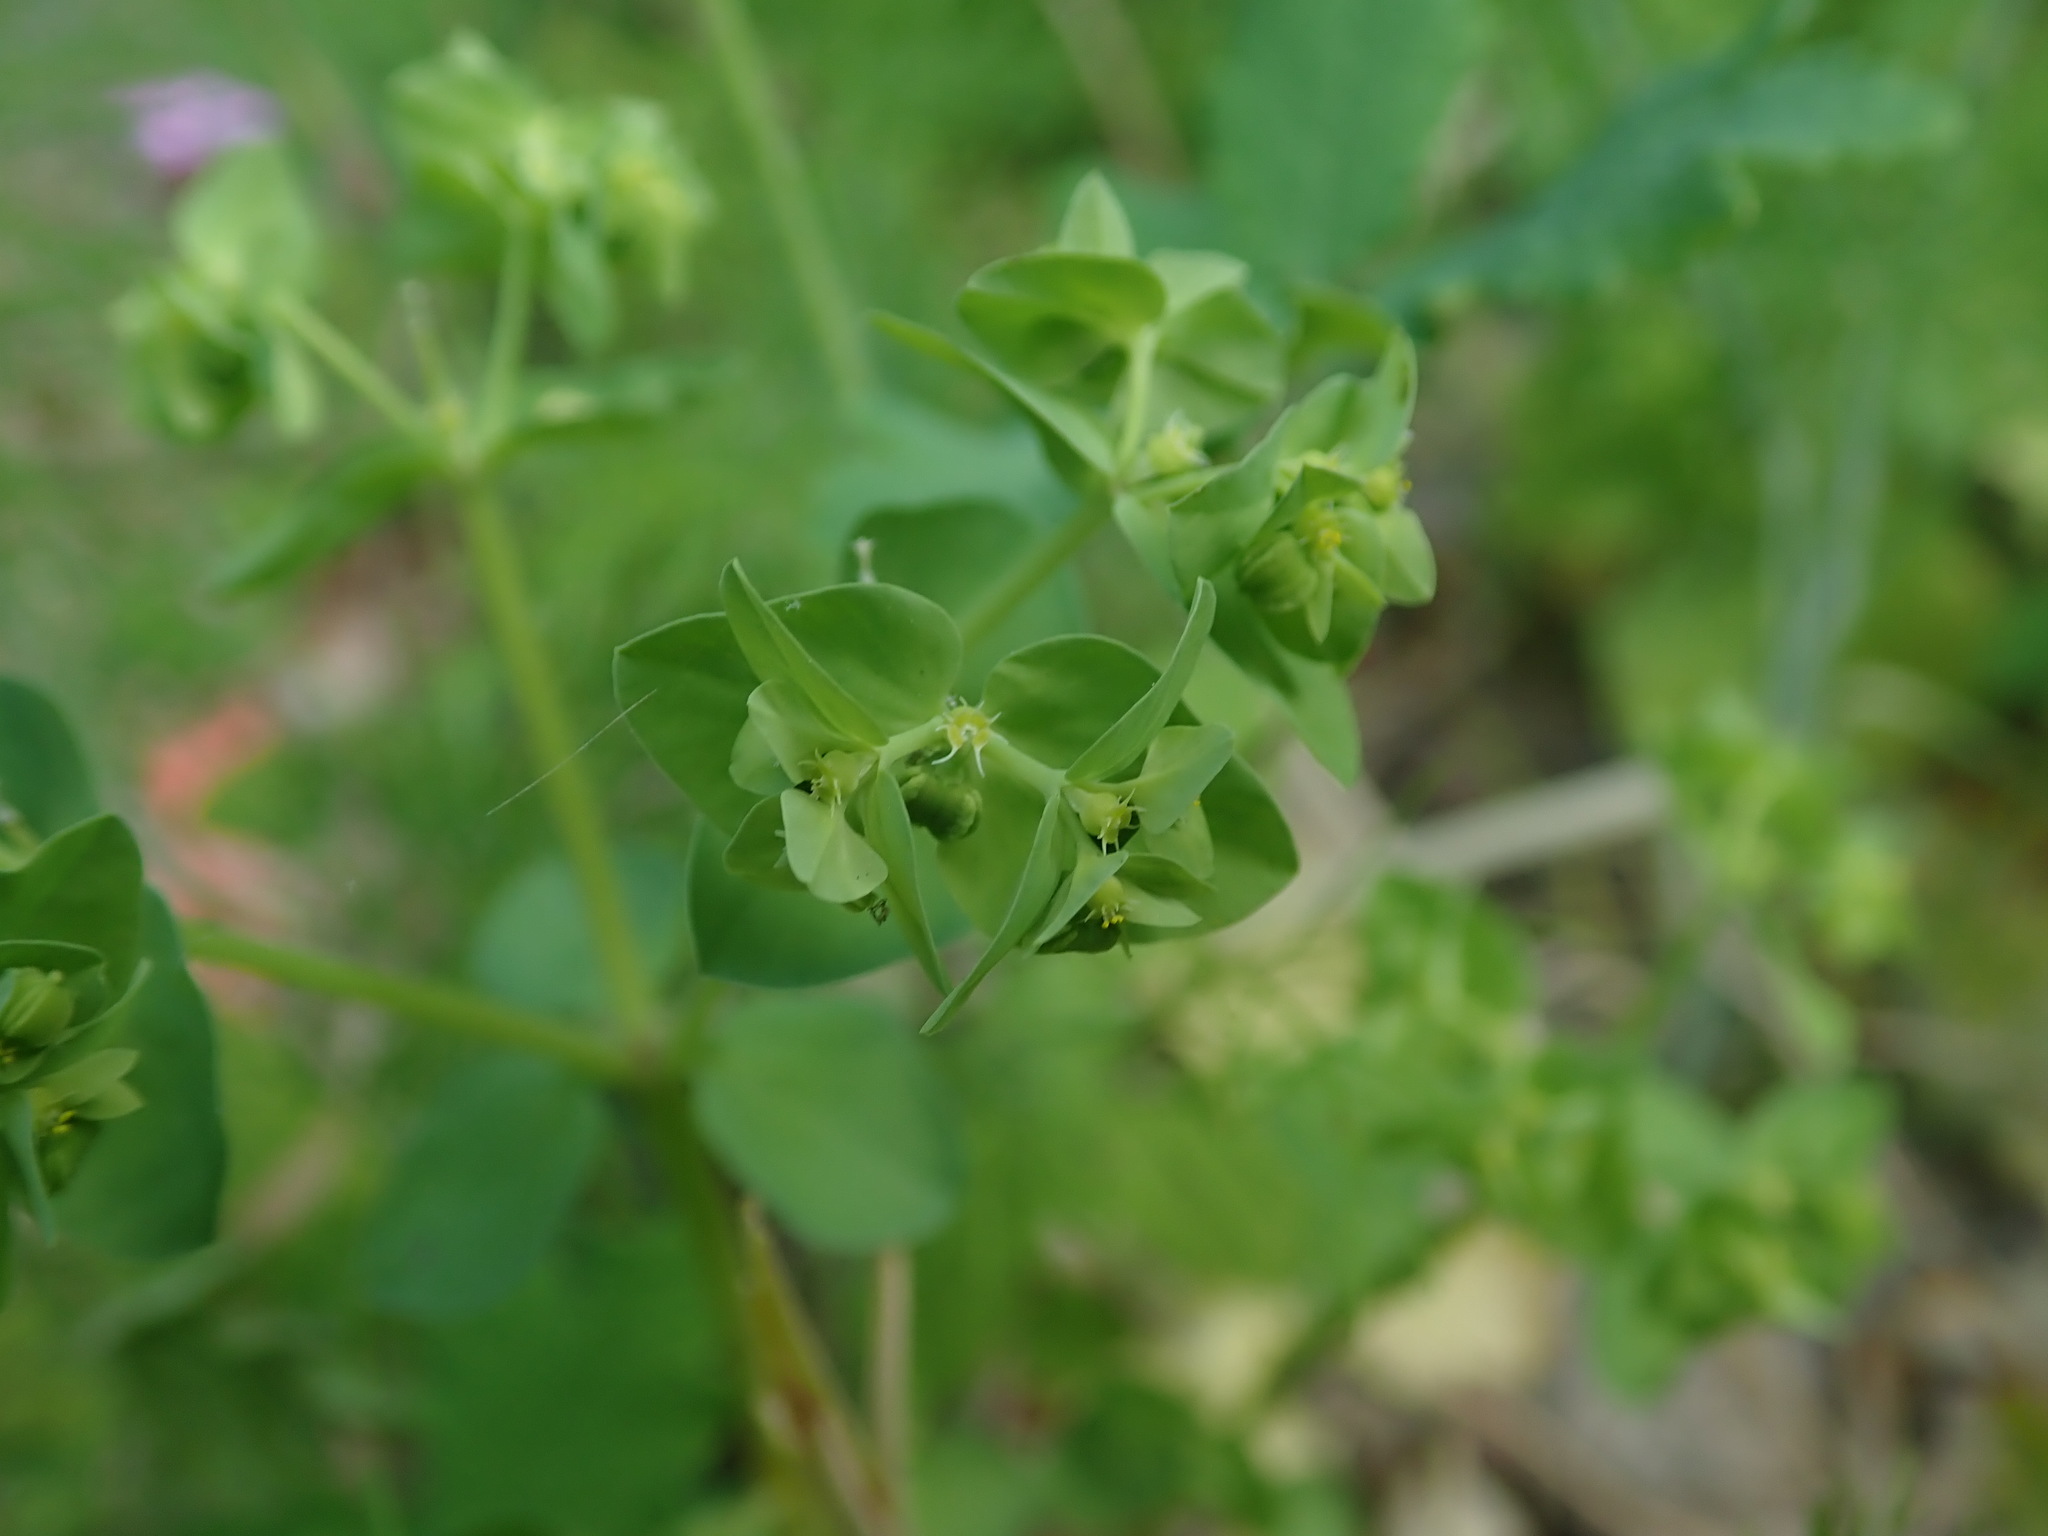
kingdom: Plantae
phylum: Tracheophyta
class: Magnoliopsida
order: Malpighiales
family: Euphorbiaceae
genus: Euphorbia
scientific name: Euphorbia peplus
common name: Petty spurge
